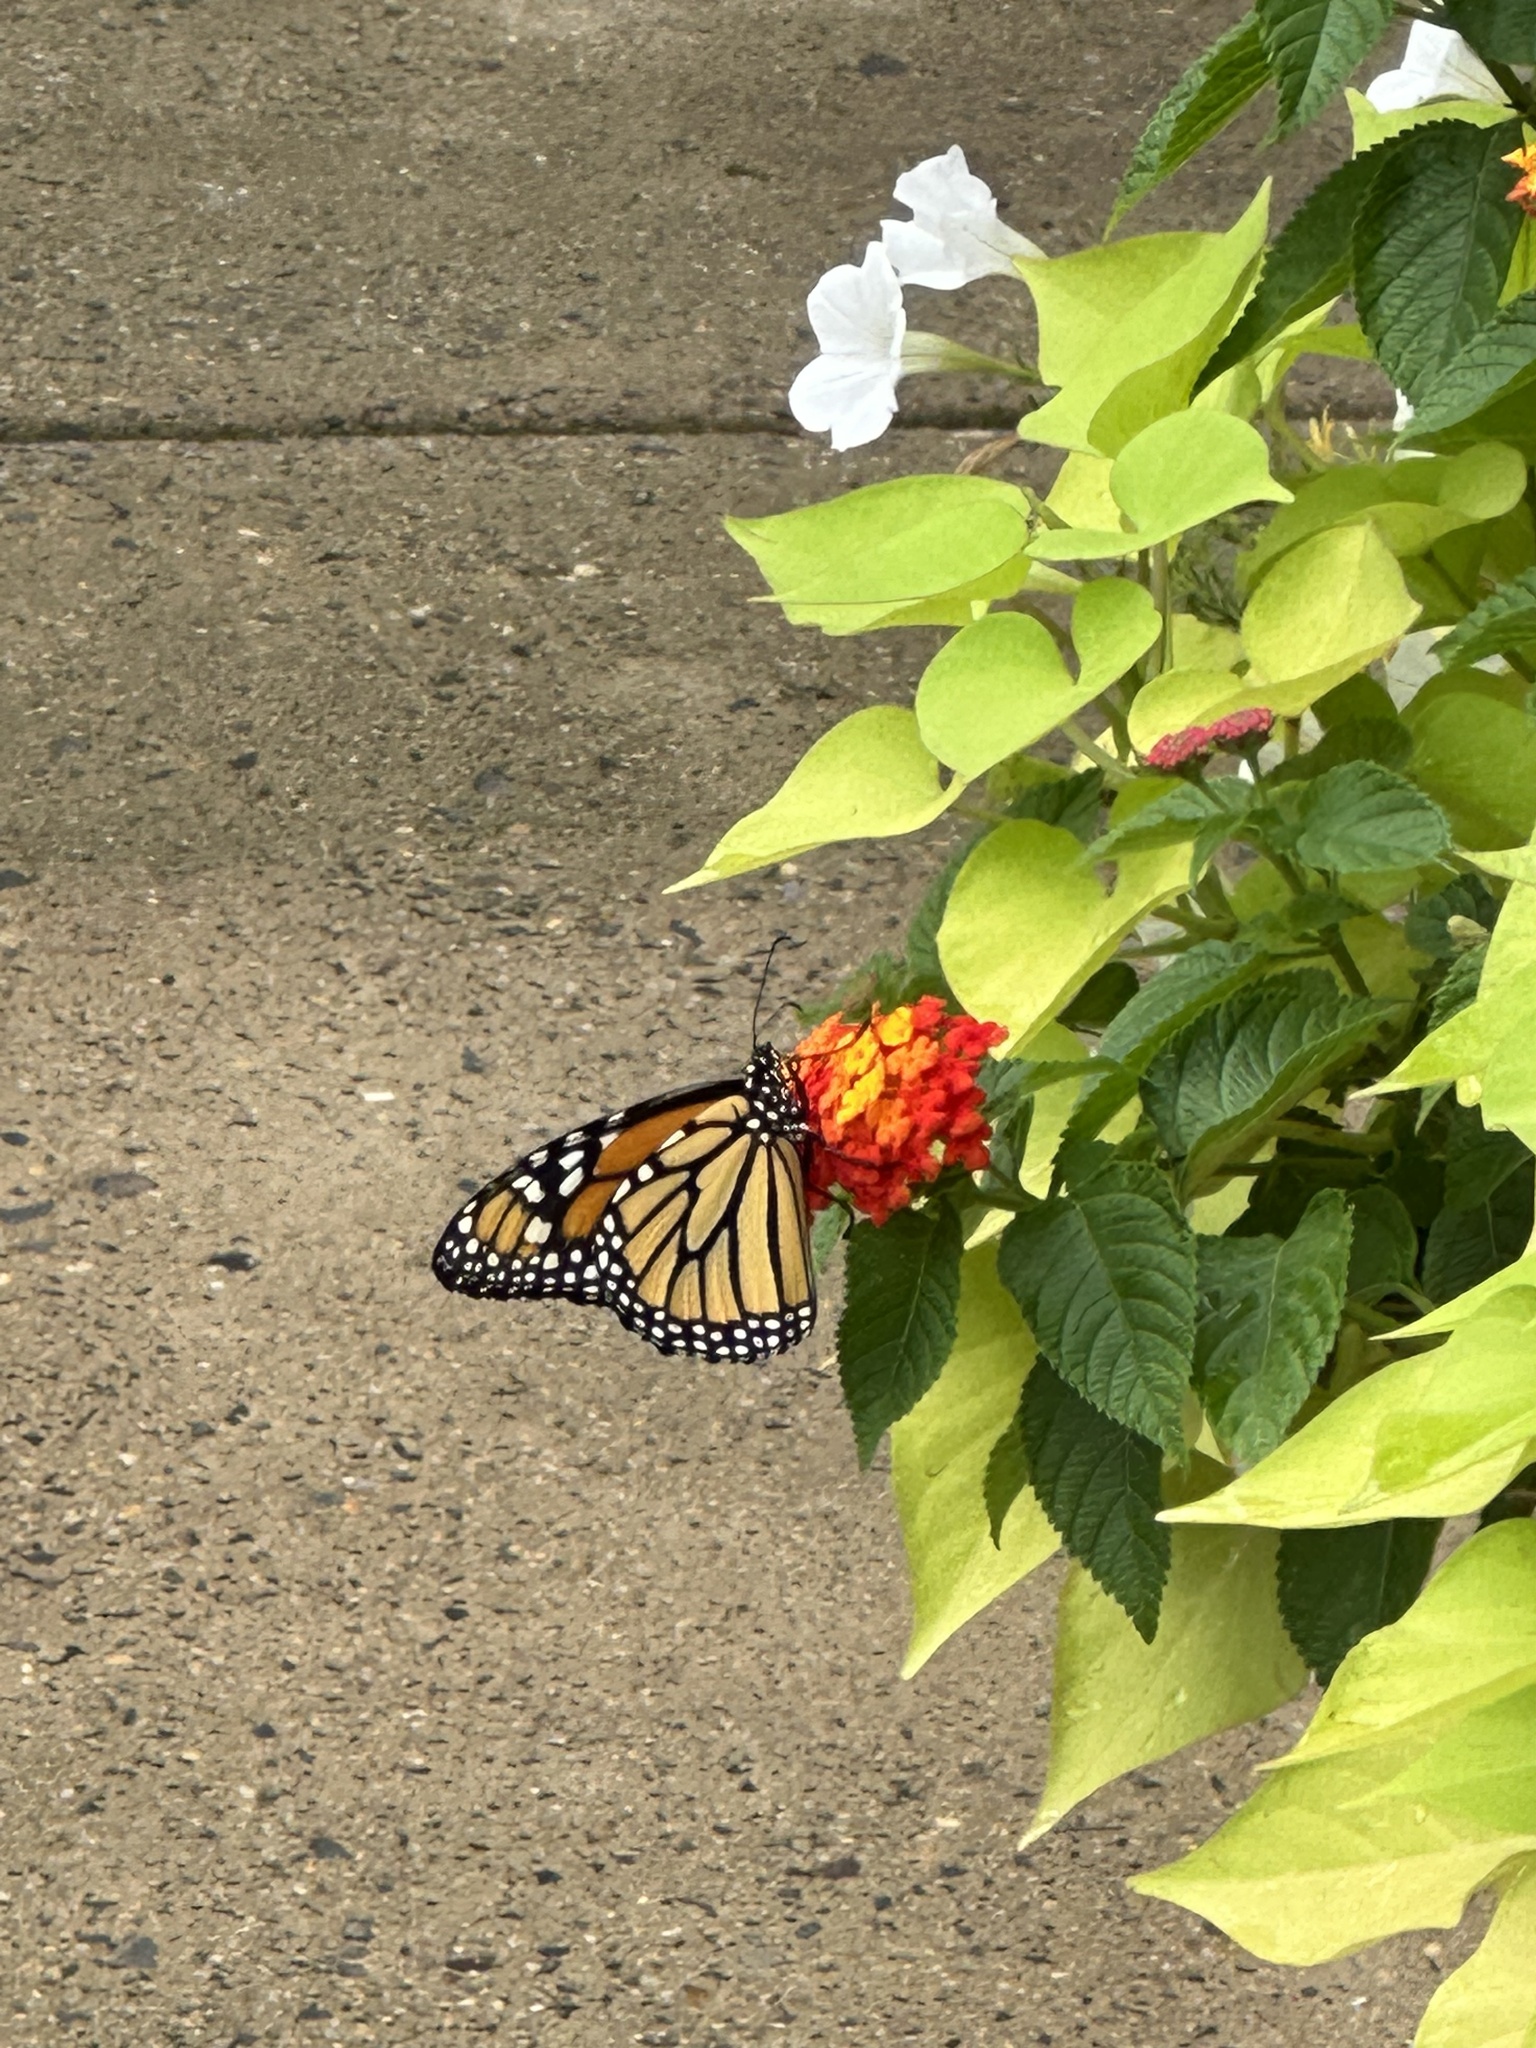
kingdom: Animalia
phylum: Arthropoda
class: Insecta
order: Lepidoptera
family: Nymphalidae
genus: Danaus
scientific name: Danaus plexippus
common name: Monarch
